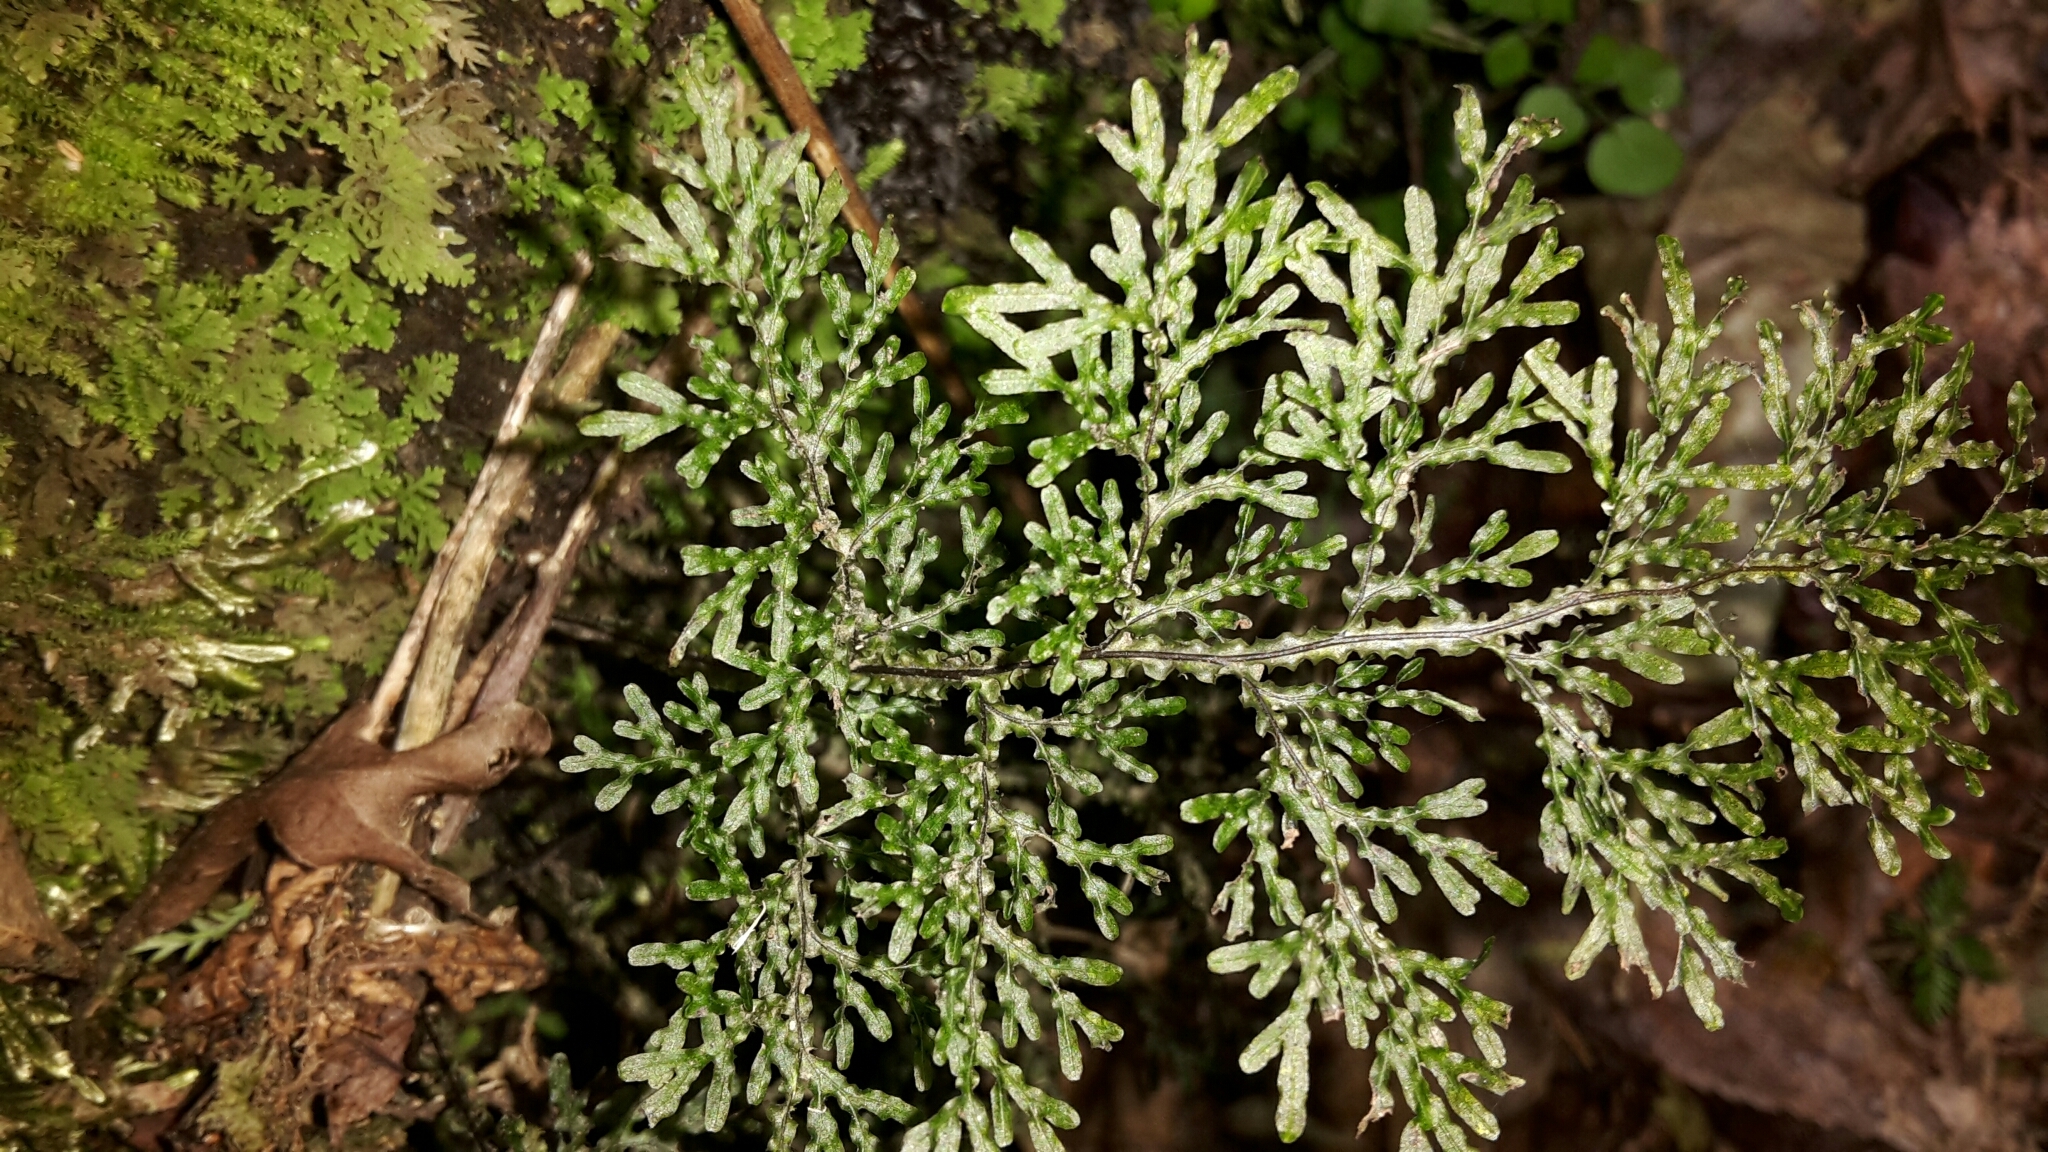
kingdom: Plantae
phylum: Tracheophyta
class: Polypodiopsida
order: Hymenophyllales
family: Hymenophyllaceae
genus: Hymenophyllum
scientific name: Hymenophyllum flexuosum
